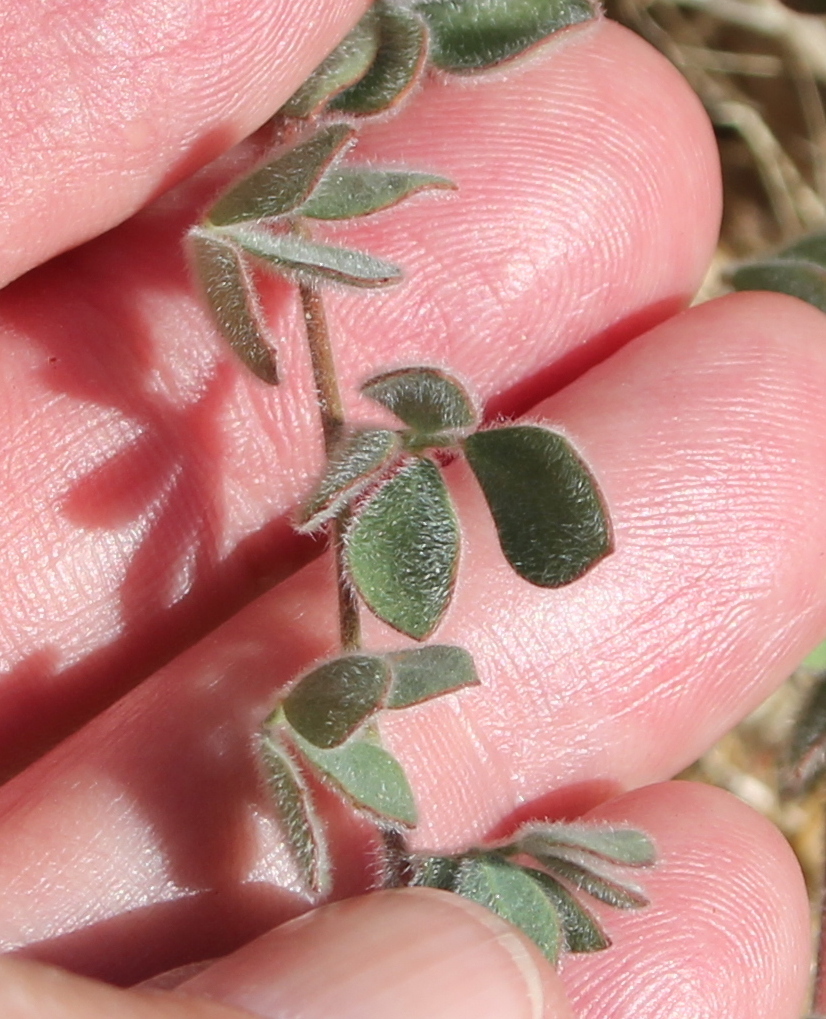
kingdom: Plantae
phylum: Tracheophyta
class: Magnoliopsida
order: Fabales
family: Fabaceae
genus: Acmispon
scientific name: Acmispon decumbens
